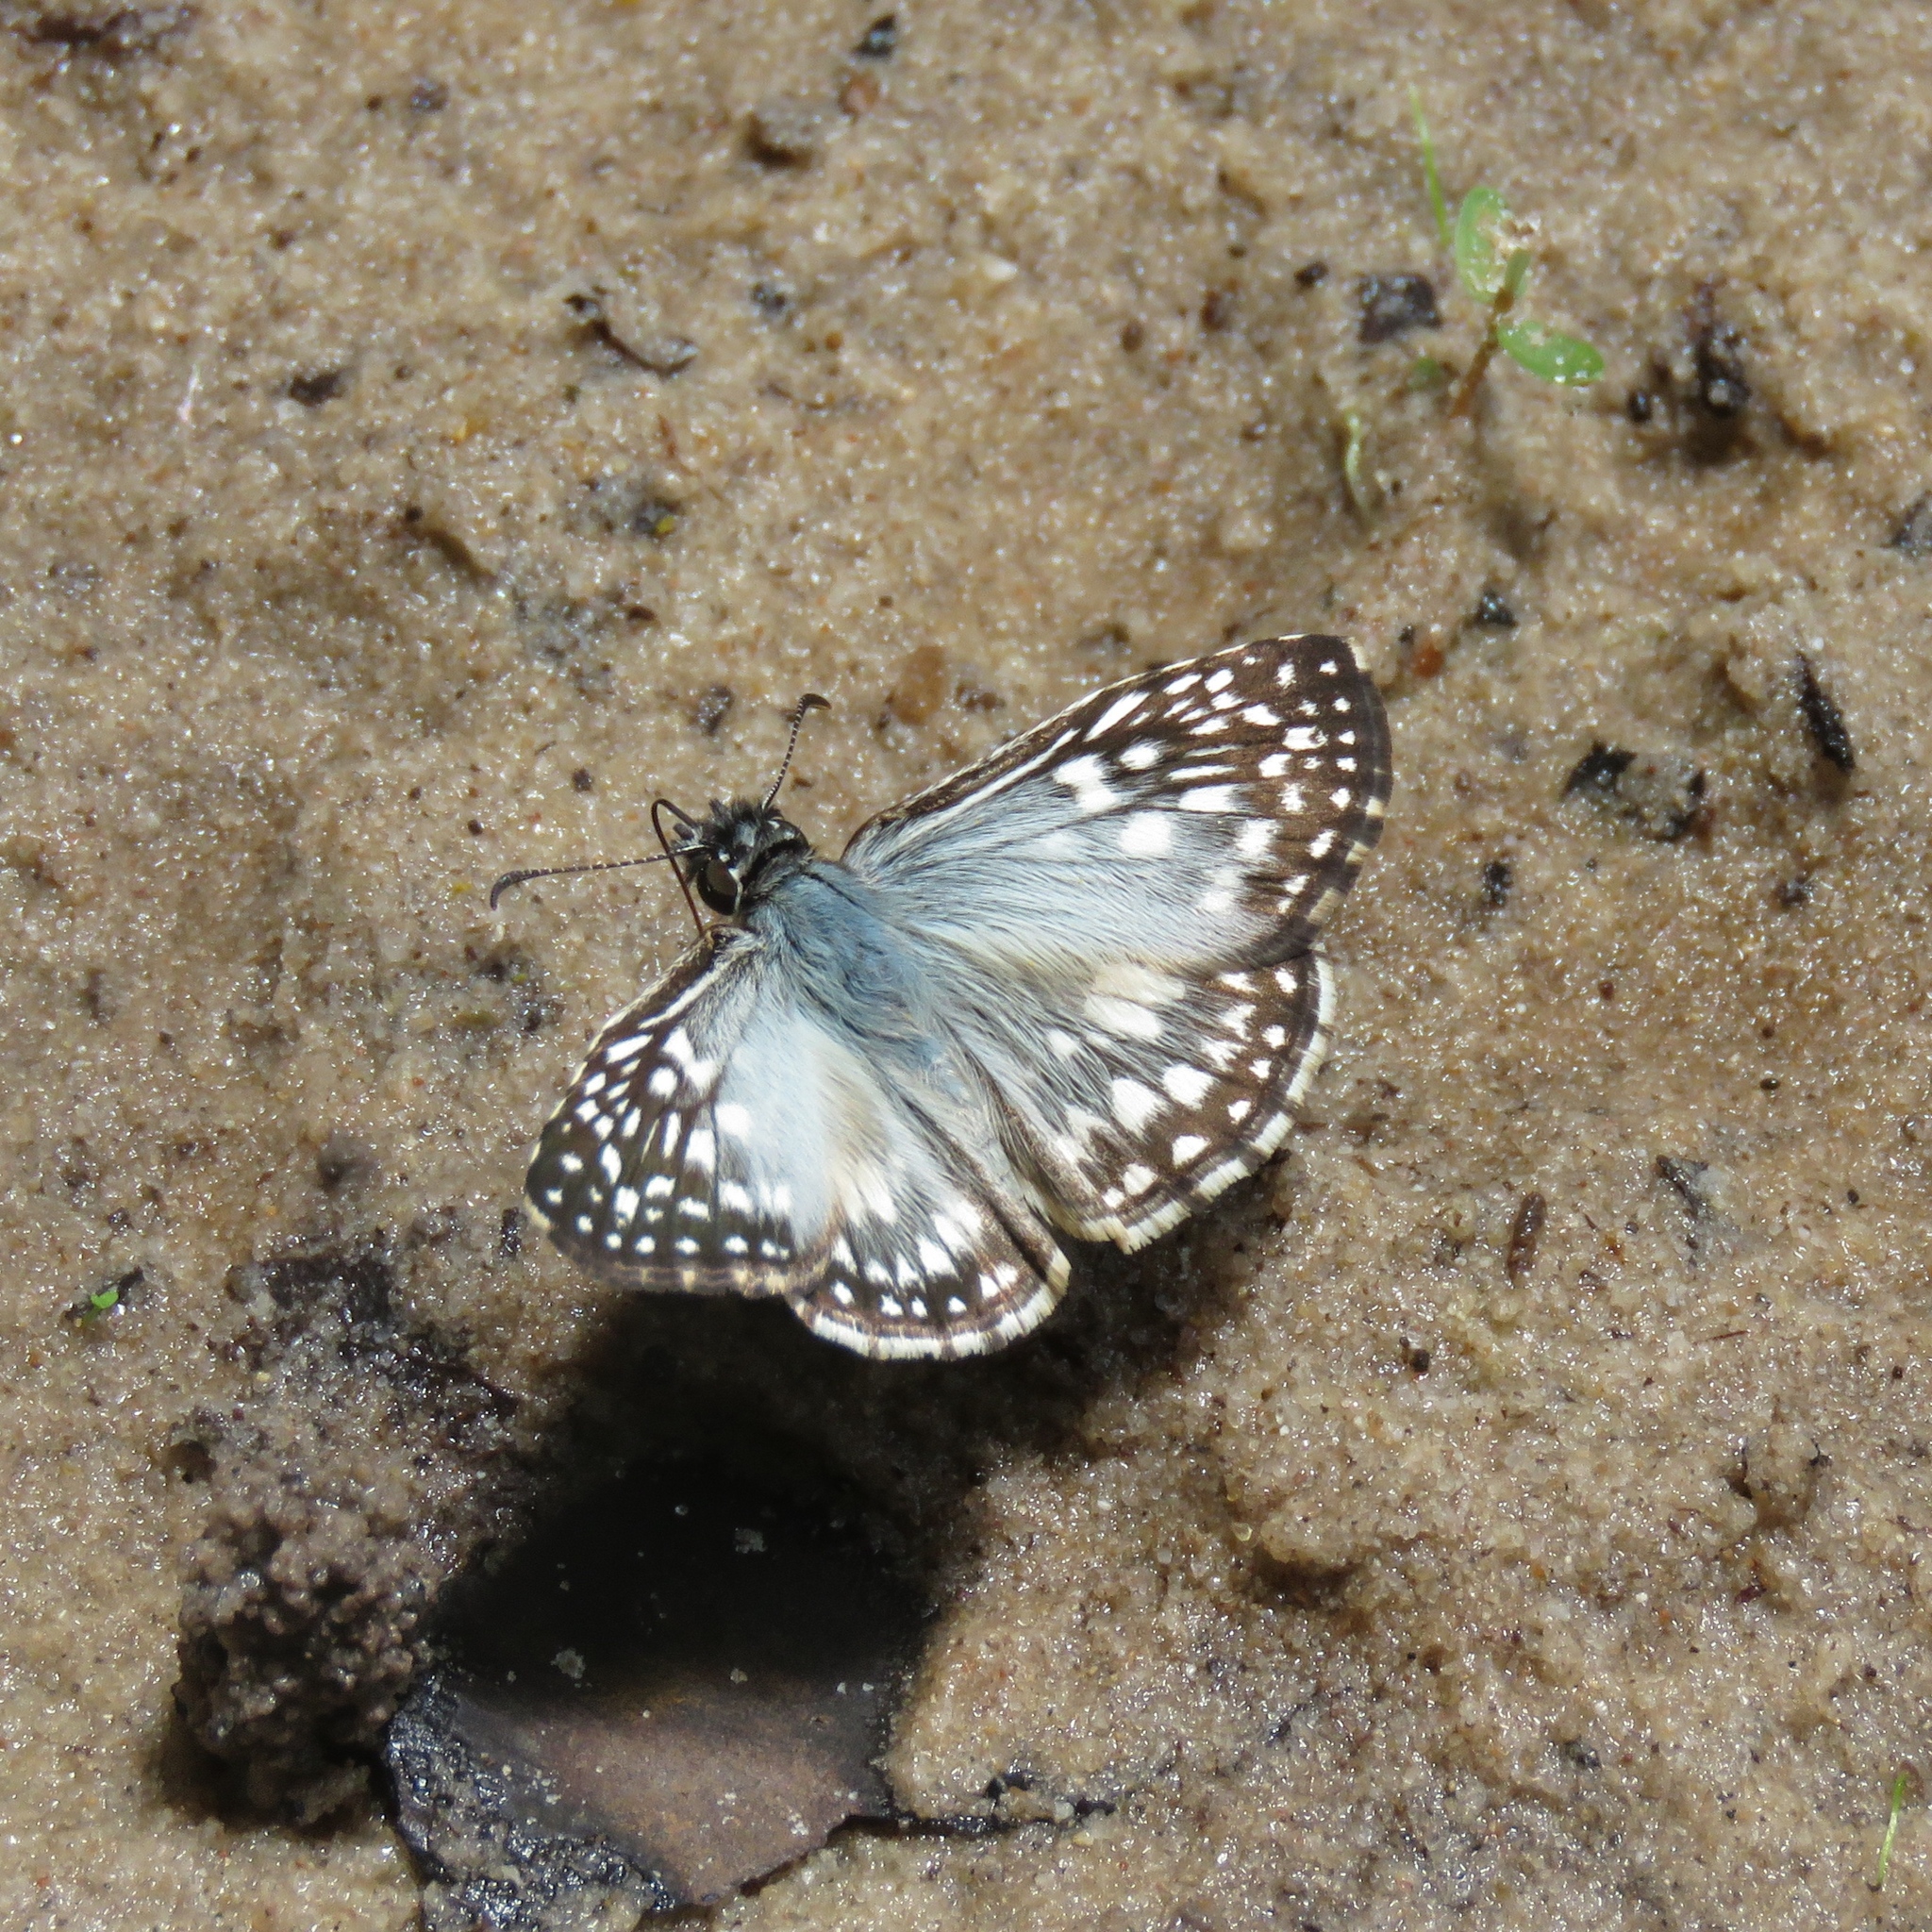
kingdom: Animalia
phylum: Arthropoda
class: Insecta
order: Lepidoptera
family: Hesperiidae
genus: Pyrgus
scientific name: Pyrgus oileus
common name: Tropical checkered-skipper
